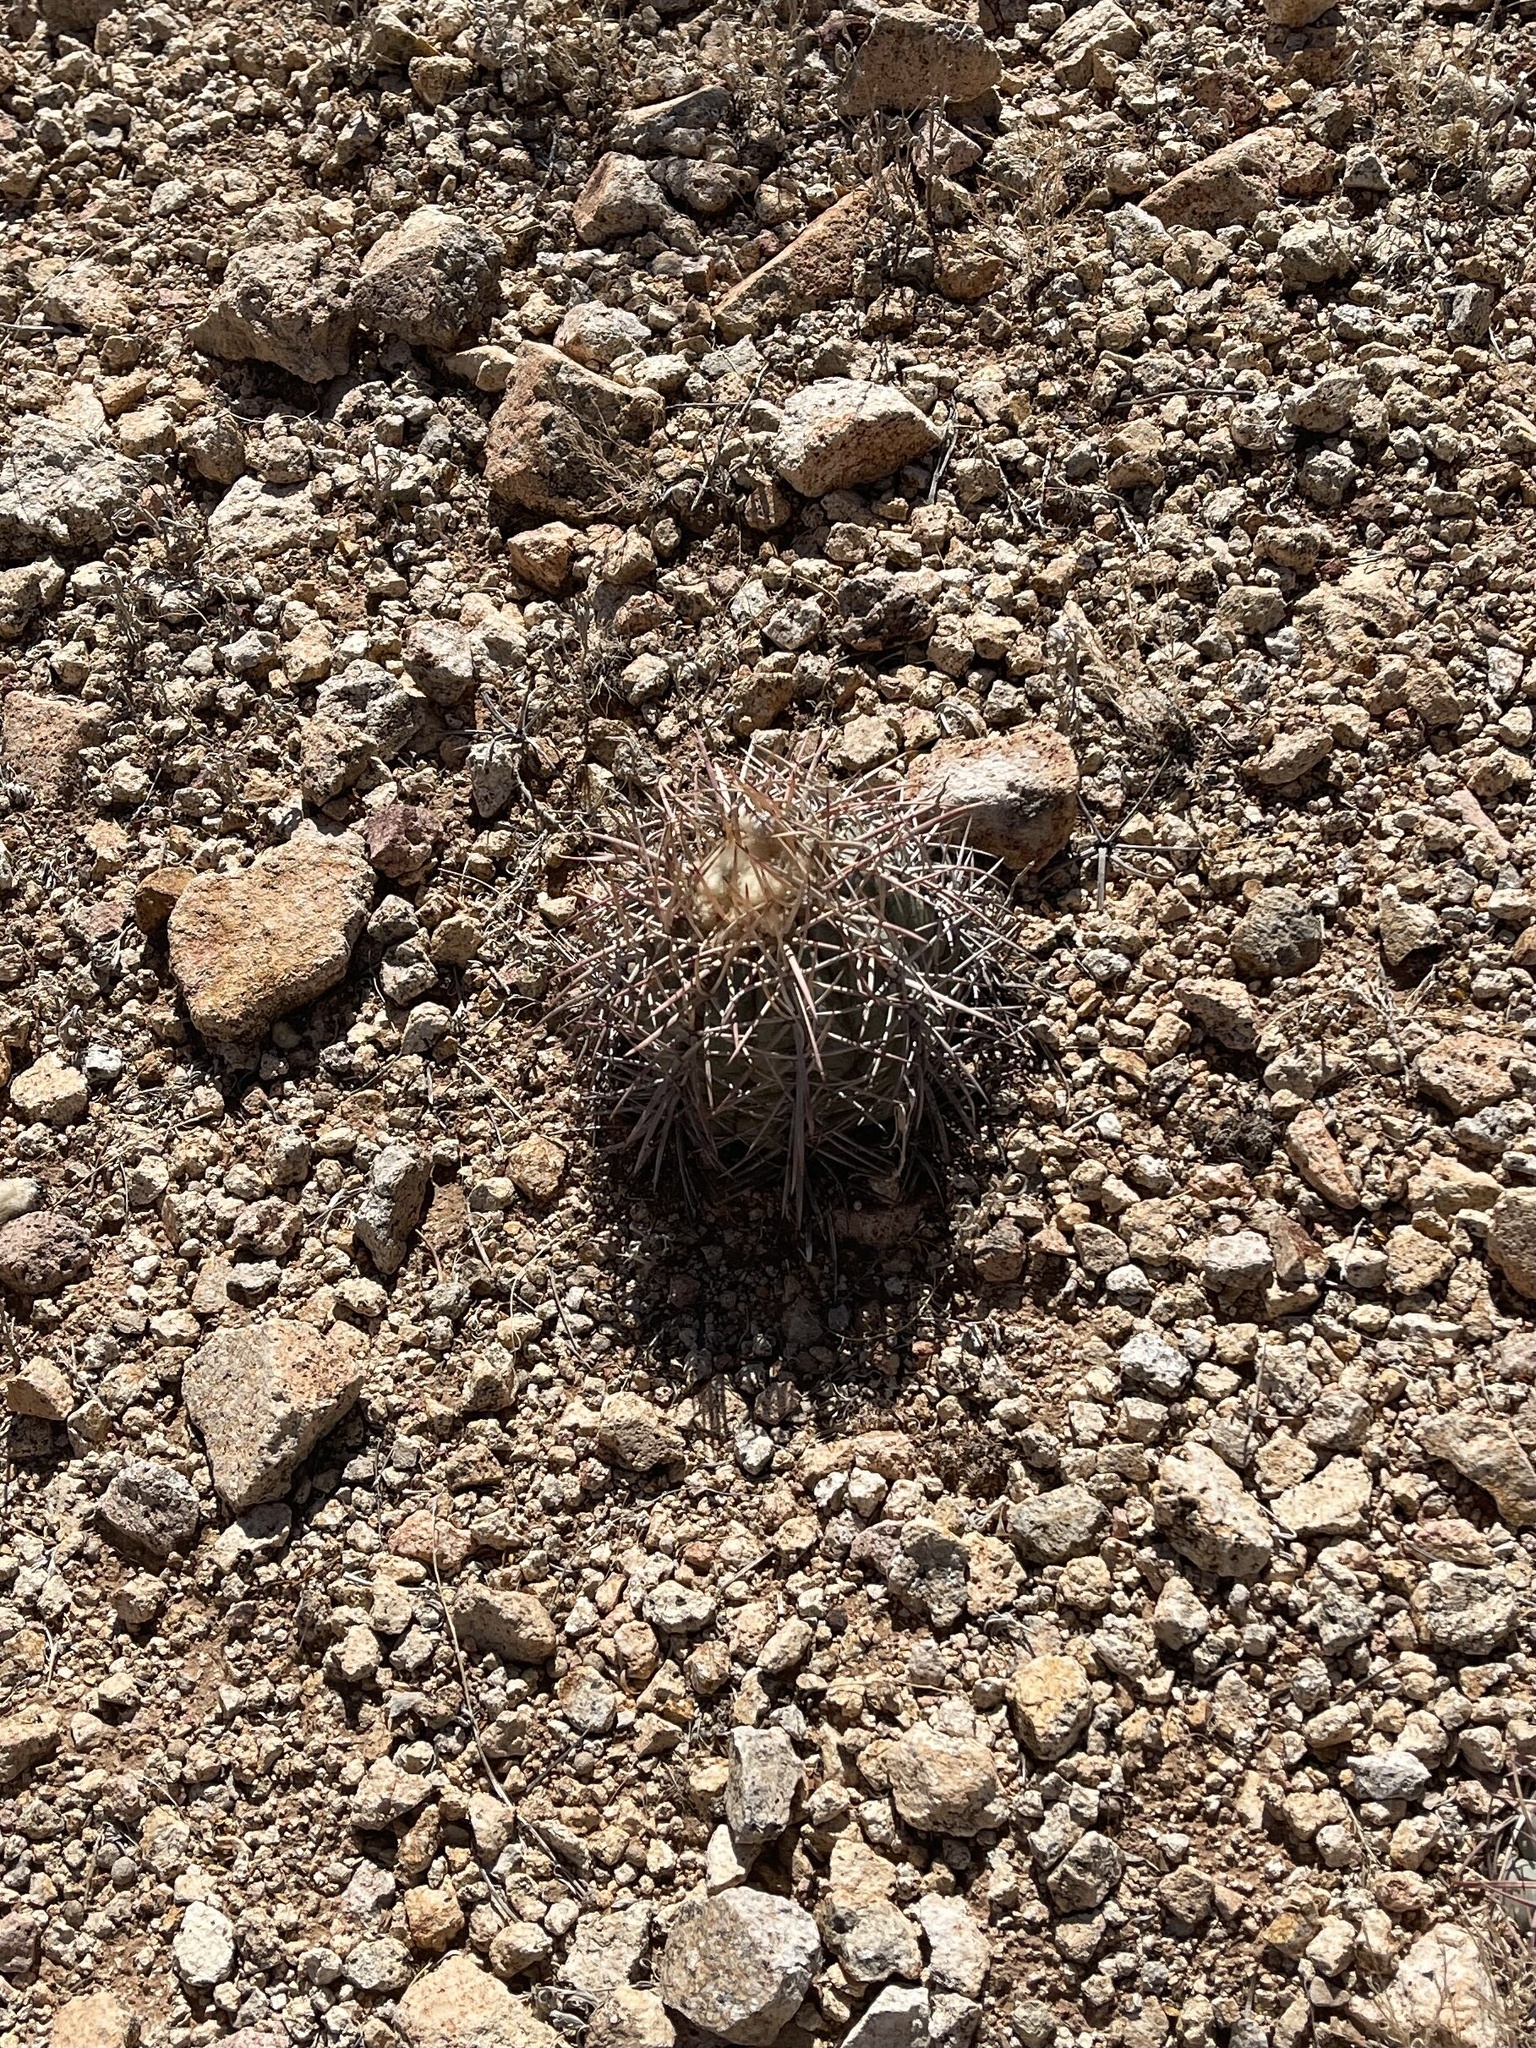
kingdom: Plantae
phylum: Tracheophyta
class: Magnoliopsida
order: Caryophyllales
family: Cactaceae
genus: Echinocactus
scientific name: Echinocactus horizonthalonius
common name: Devilshead
